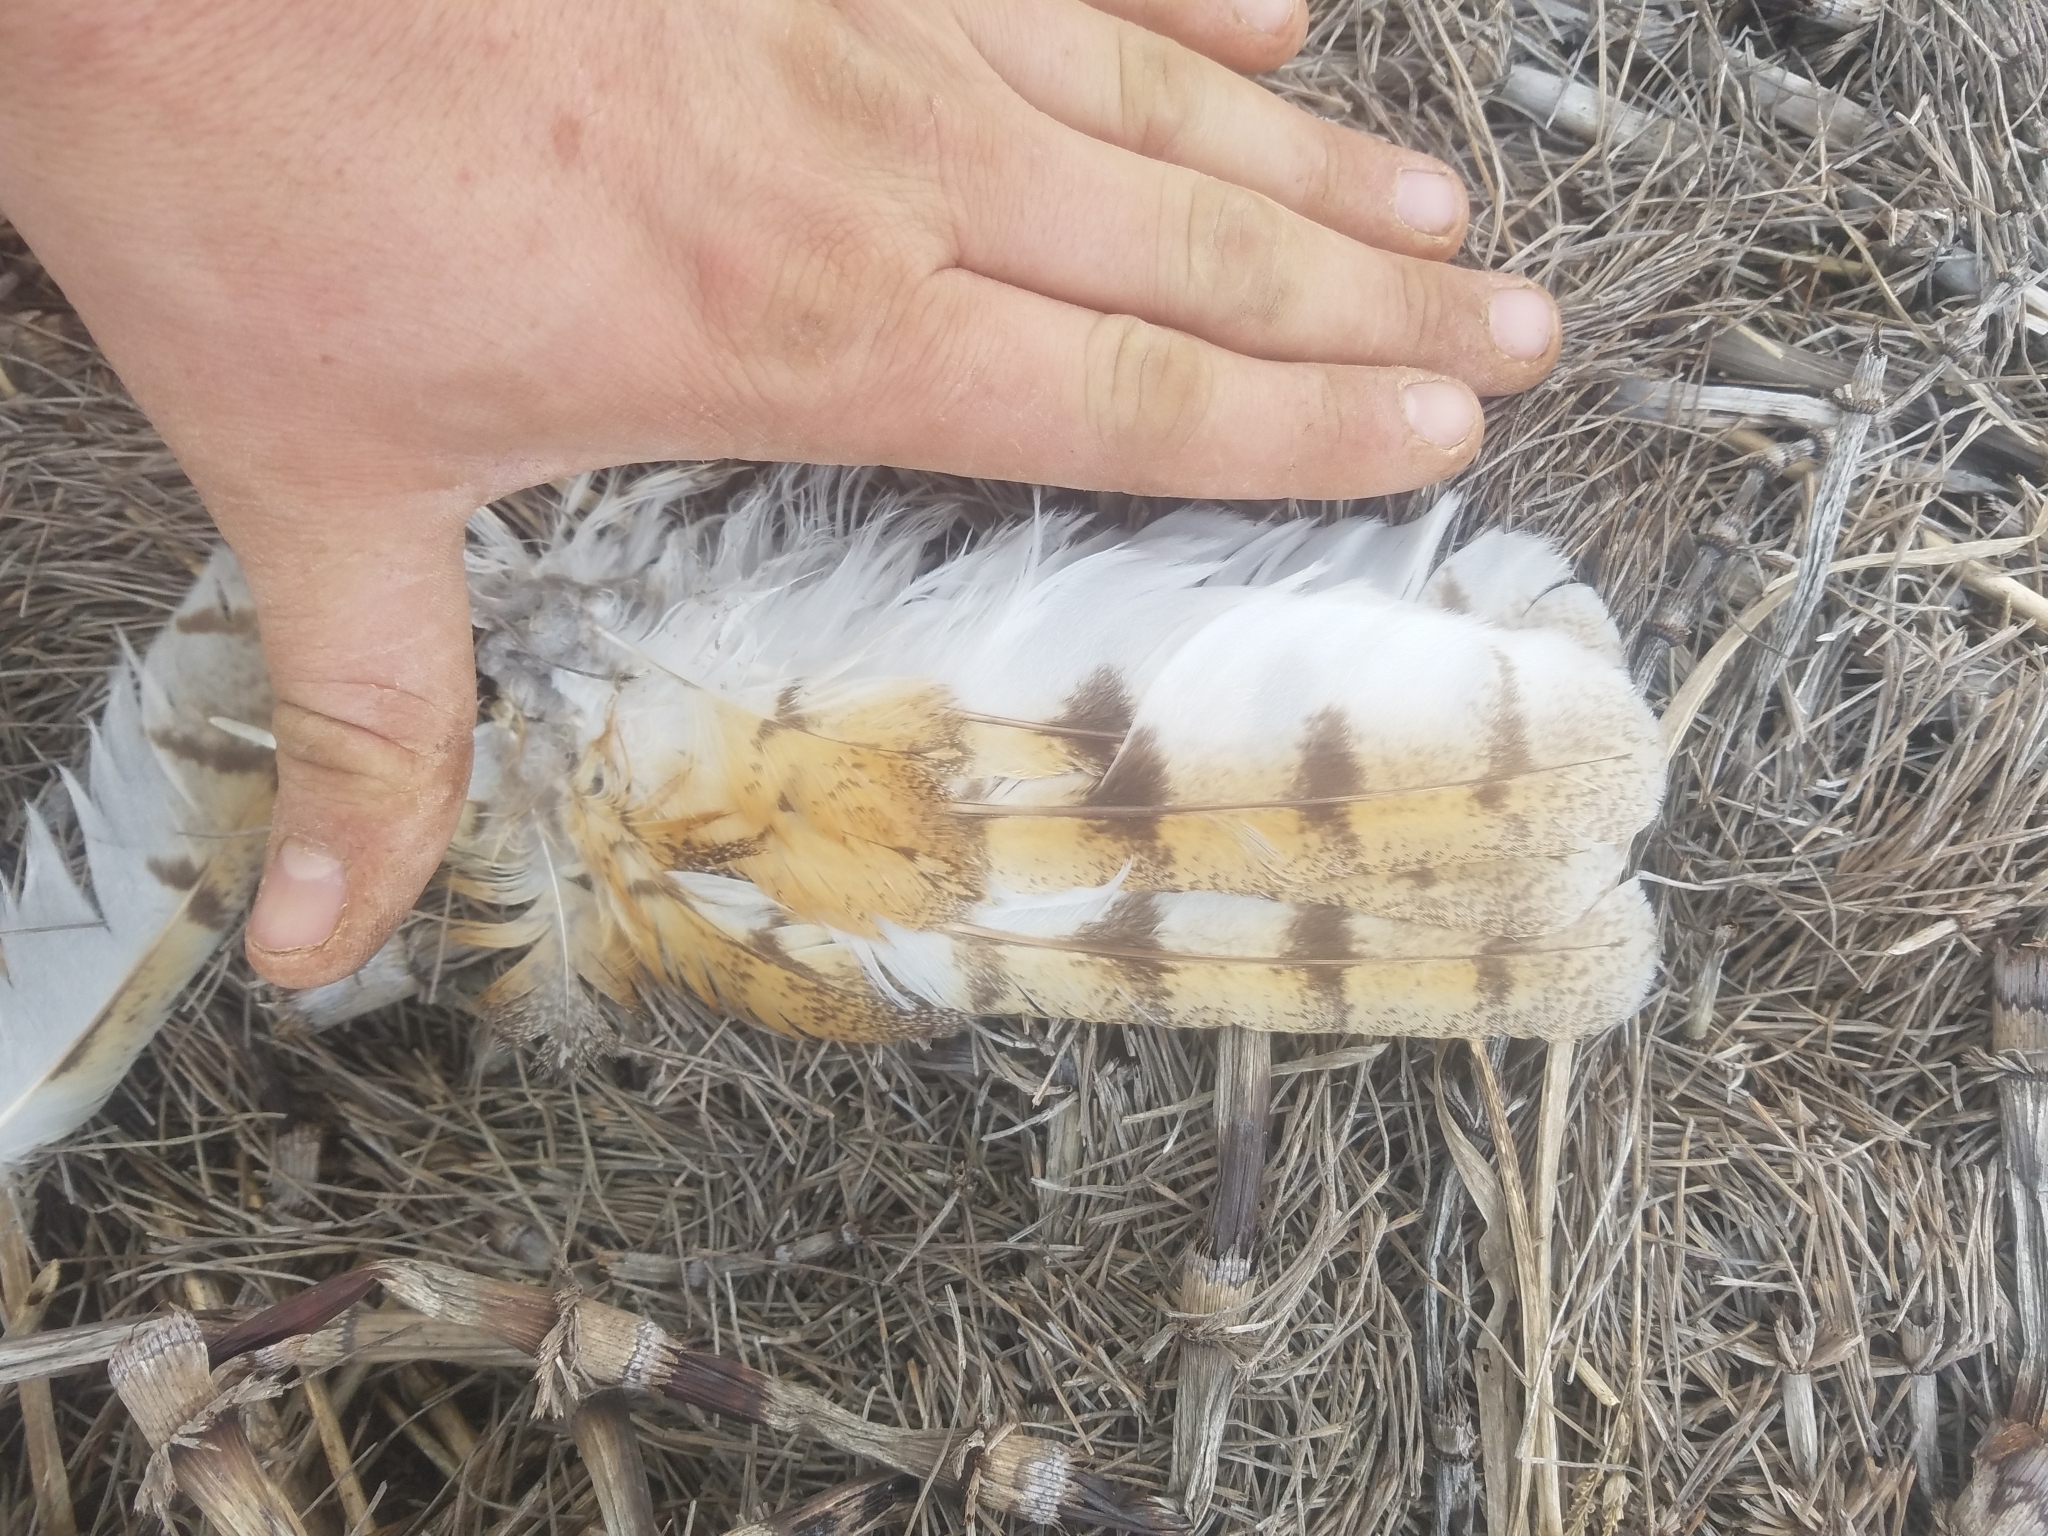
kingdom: Animalia
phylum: Chordata
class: Aves
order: Strigiformes
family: Tytonidae
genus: Tyto
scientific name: Tyto alba
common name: Barn owl
